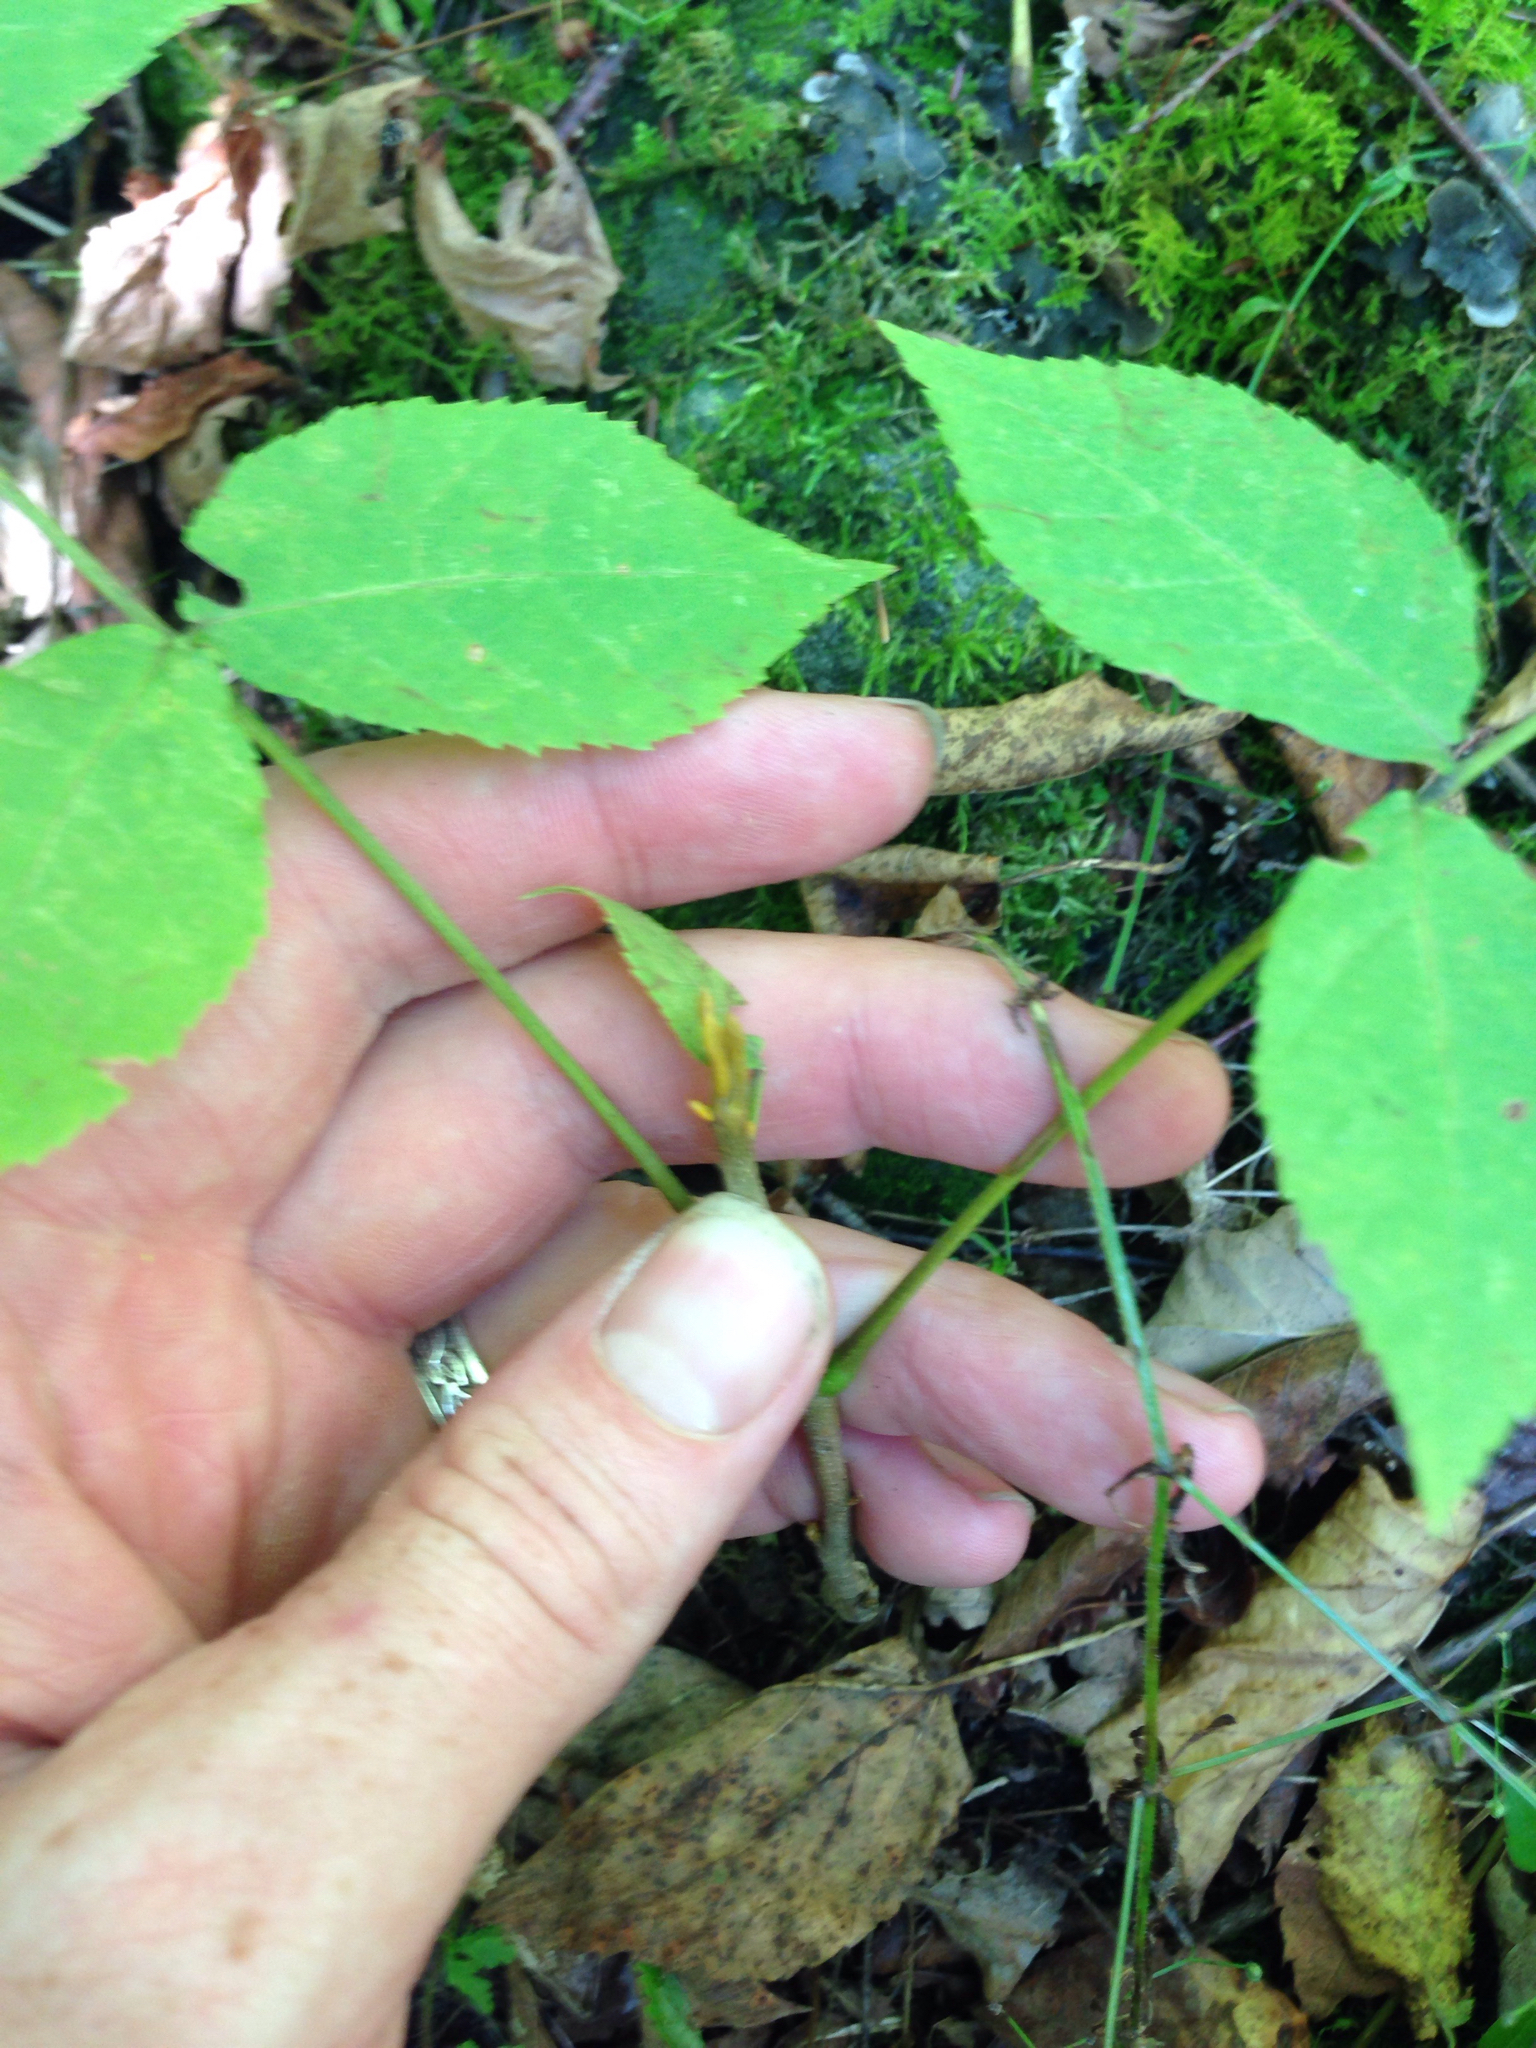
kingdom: Plantae
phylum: Tracheophyta
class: Magnoliopsida
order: Fagales
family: Juglandaceae
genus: Carya
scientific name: Carya cordiformis
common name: Bitternut hickory
